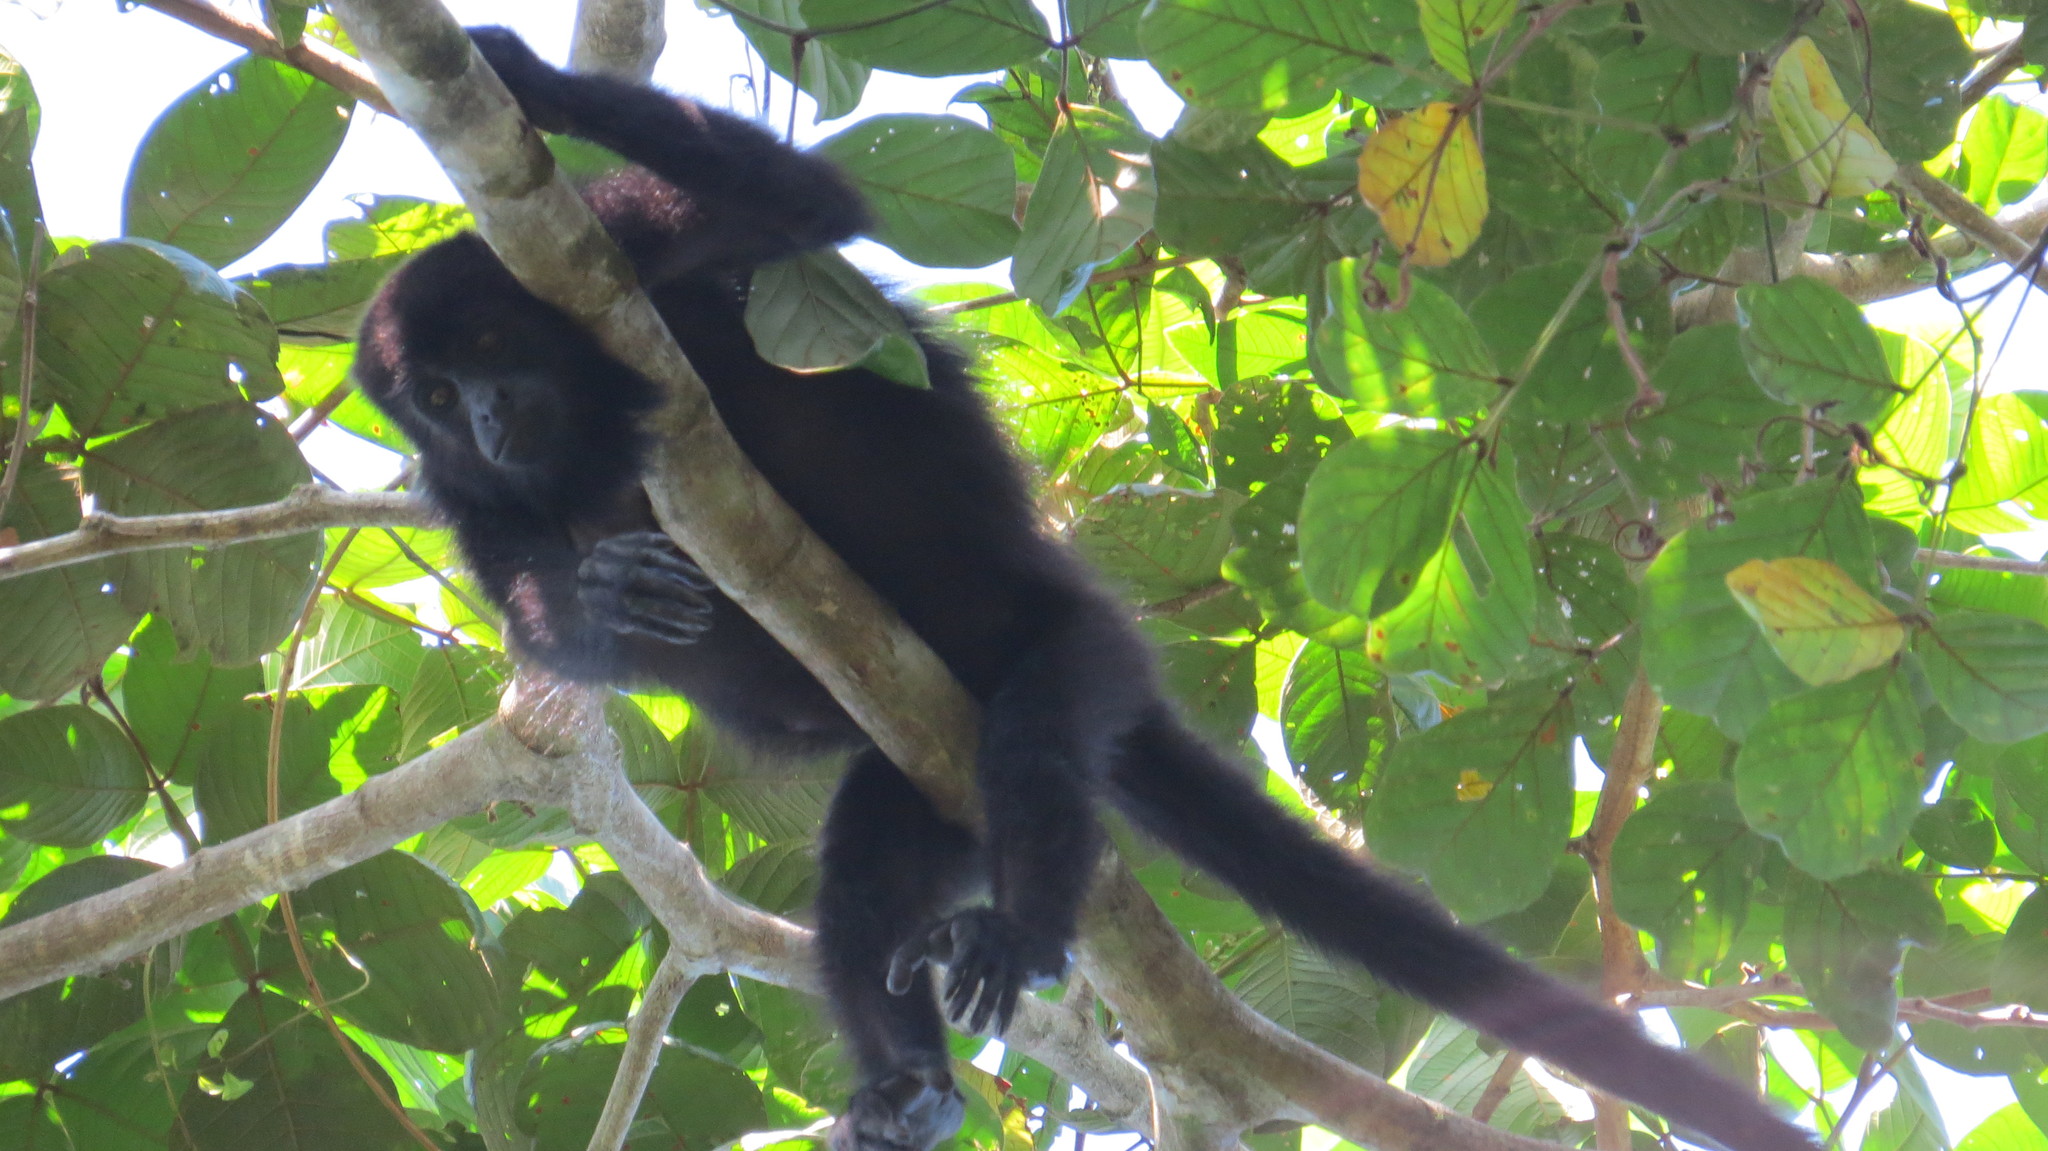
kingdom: Animalia
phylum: Chordata
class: Mammalia
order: Primates
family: Atelidae
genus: Alouatta
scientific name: Alouatta pigra
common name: Guatemalan black howler
